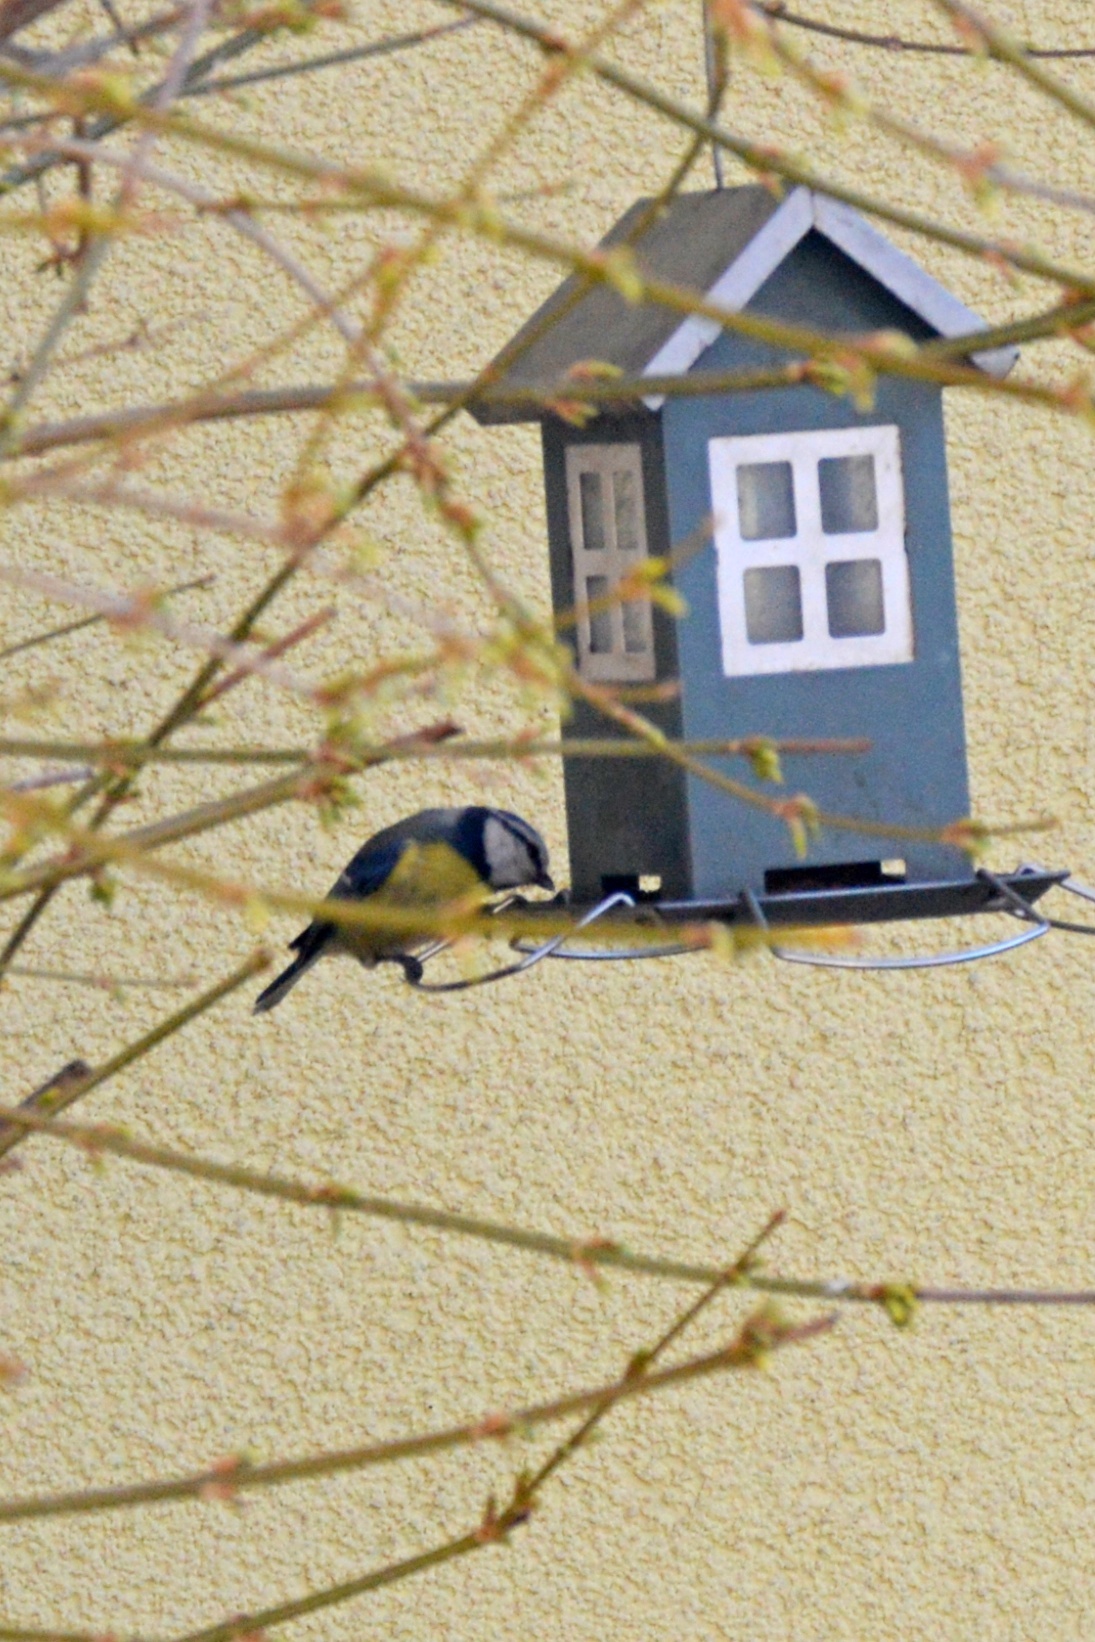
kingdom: Animalia
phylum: Chordata
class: Aves
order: Passeriformes
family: Paridae
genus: Cyanistes
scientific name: Cyanistes caeruleus
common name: Eurasian blue tit
